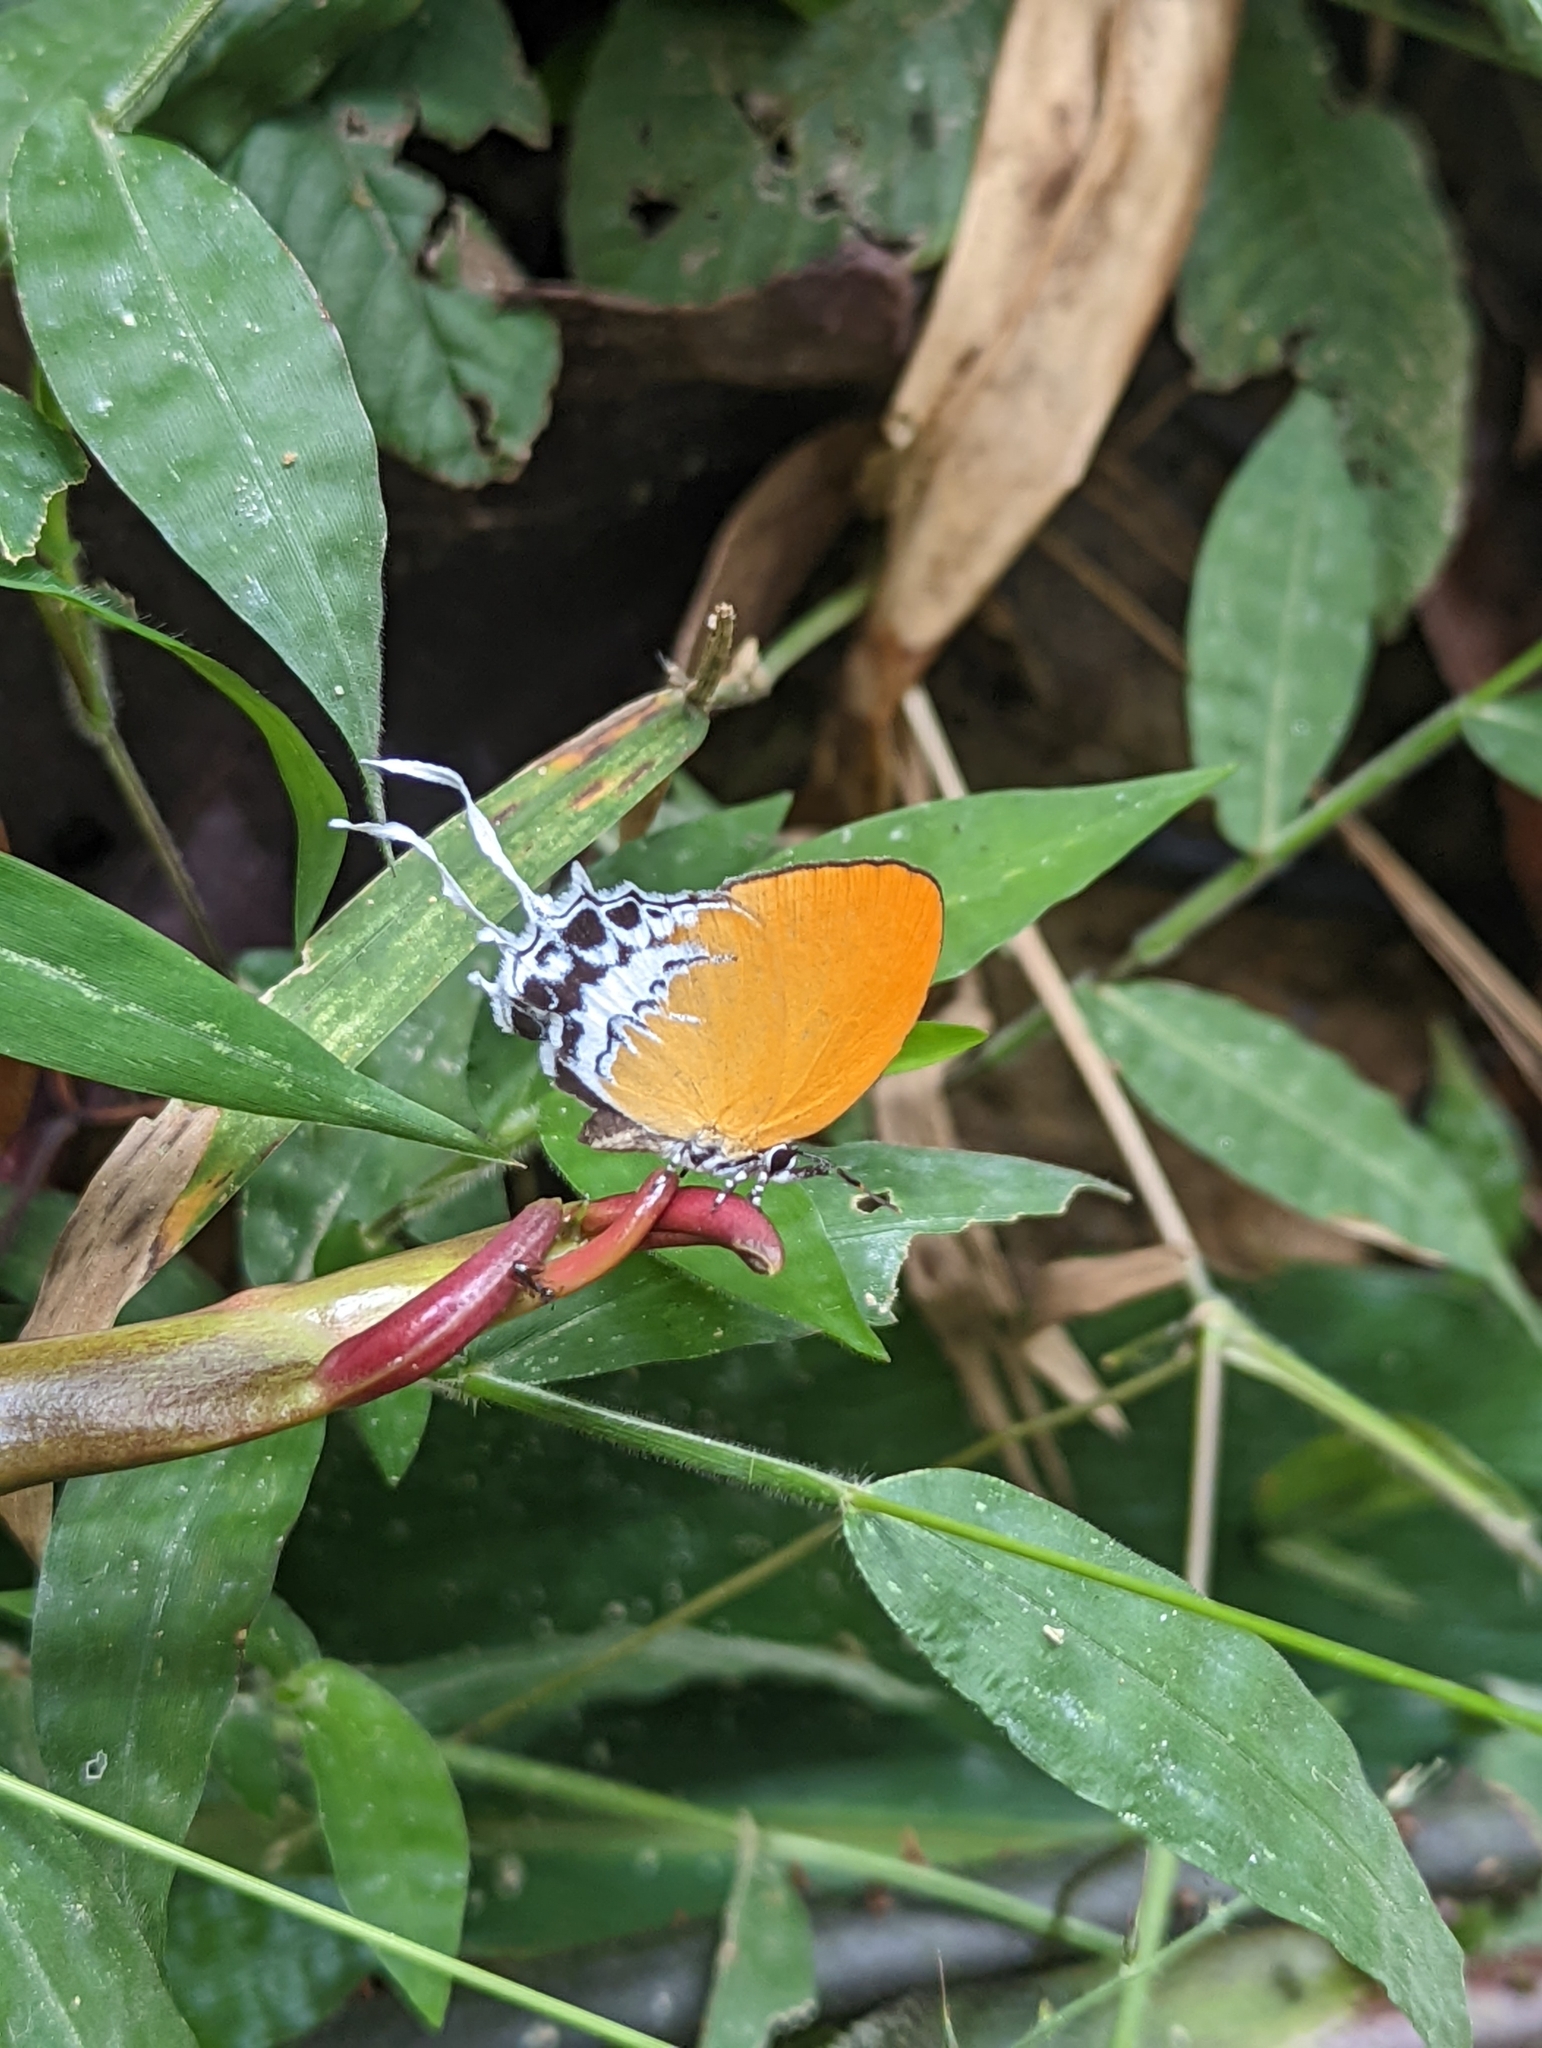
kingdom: Animalia
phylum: Arthropoda
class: Insecta
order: Lepidoptera
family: Lycaenidae
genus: Eooxylides
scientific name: Eooxylides tharis
